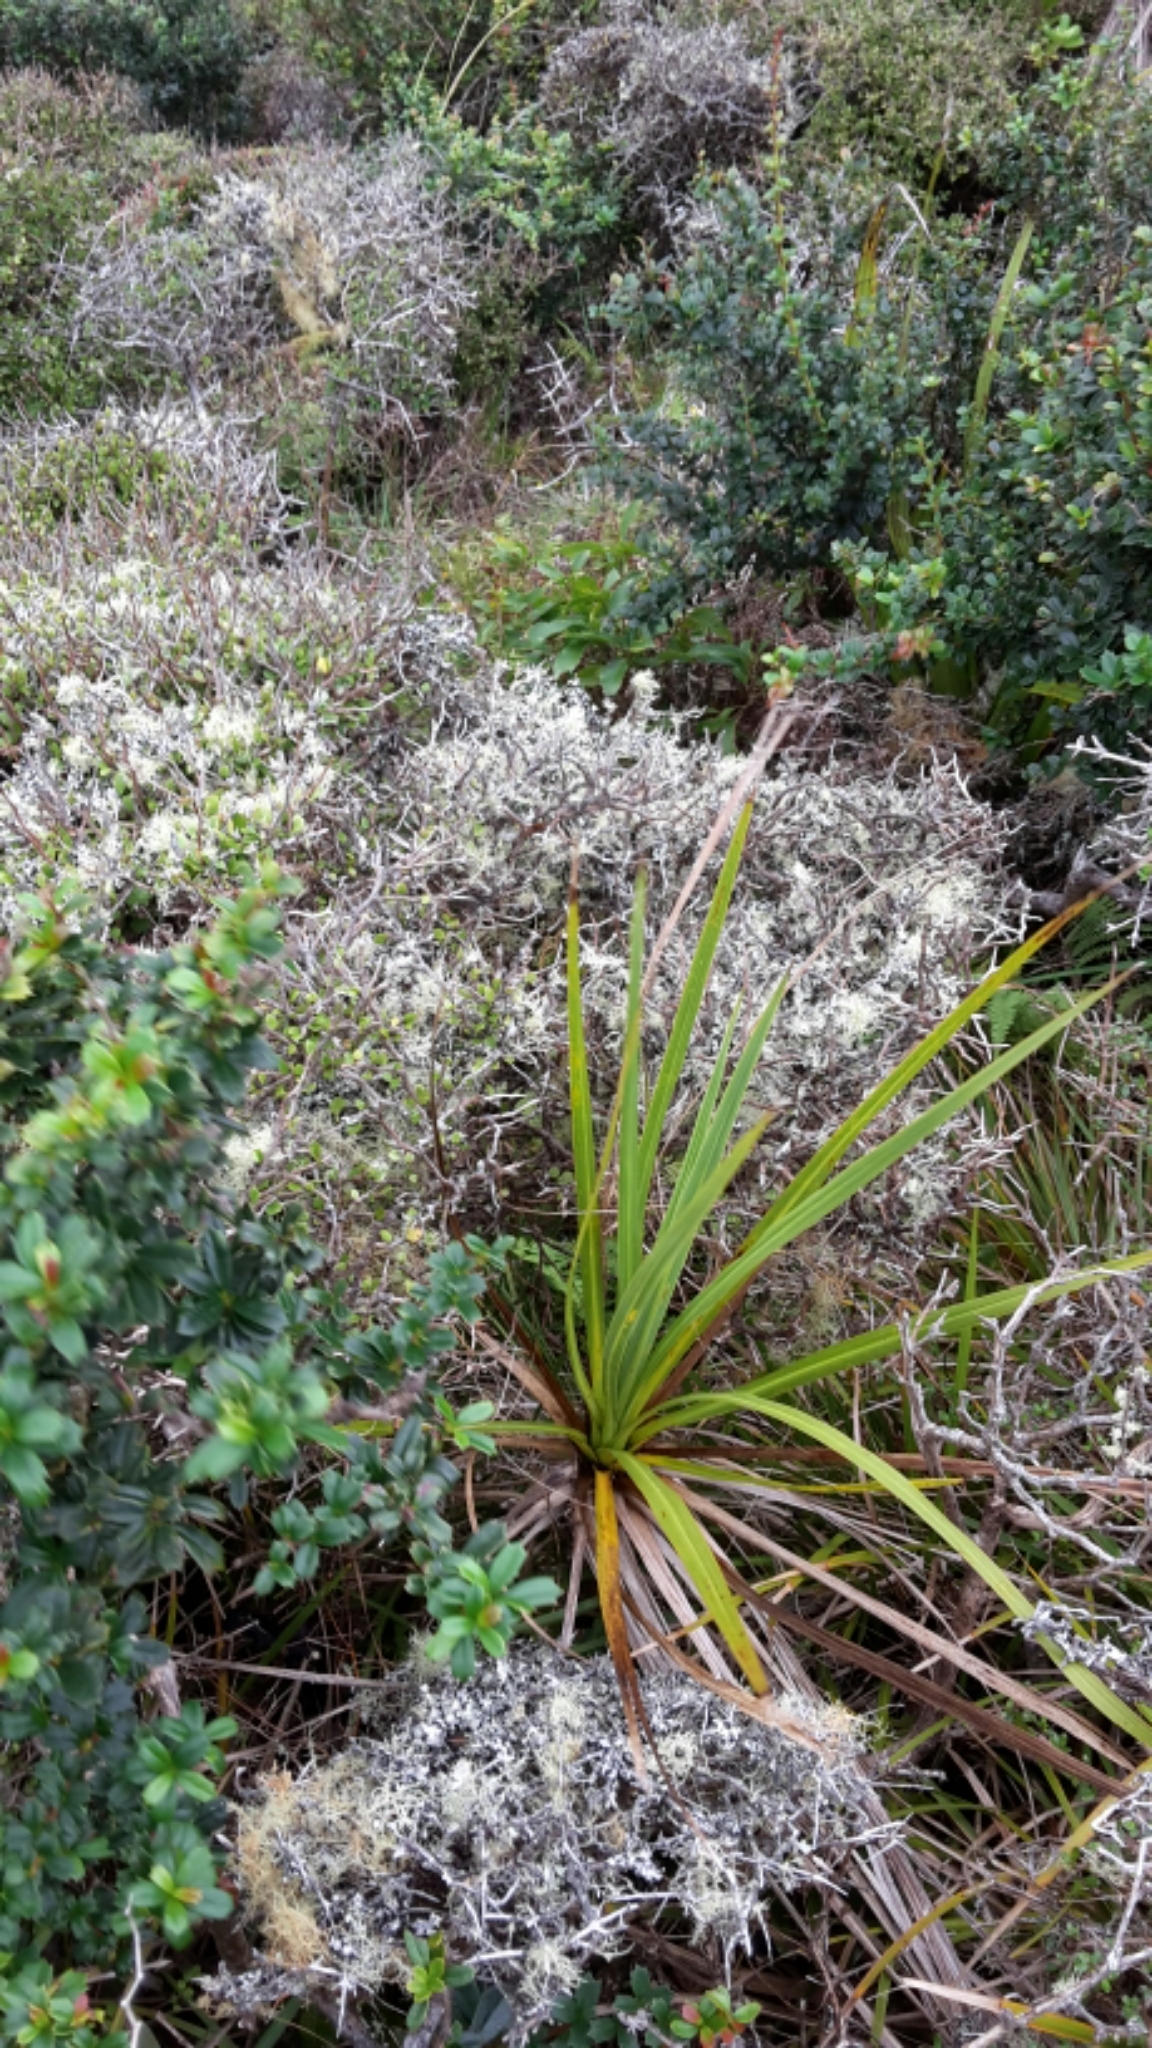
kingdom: Plantae
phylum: Tracheophyta
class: Liliopsida
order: Asparagales
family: Asparagaceae
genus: Cordyline
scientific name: Cordyline australis
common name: Cabbage-palm
